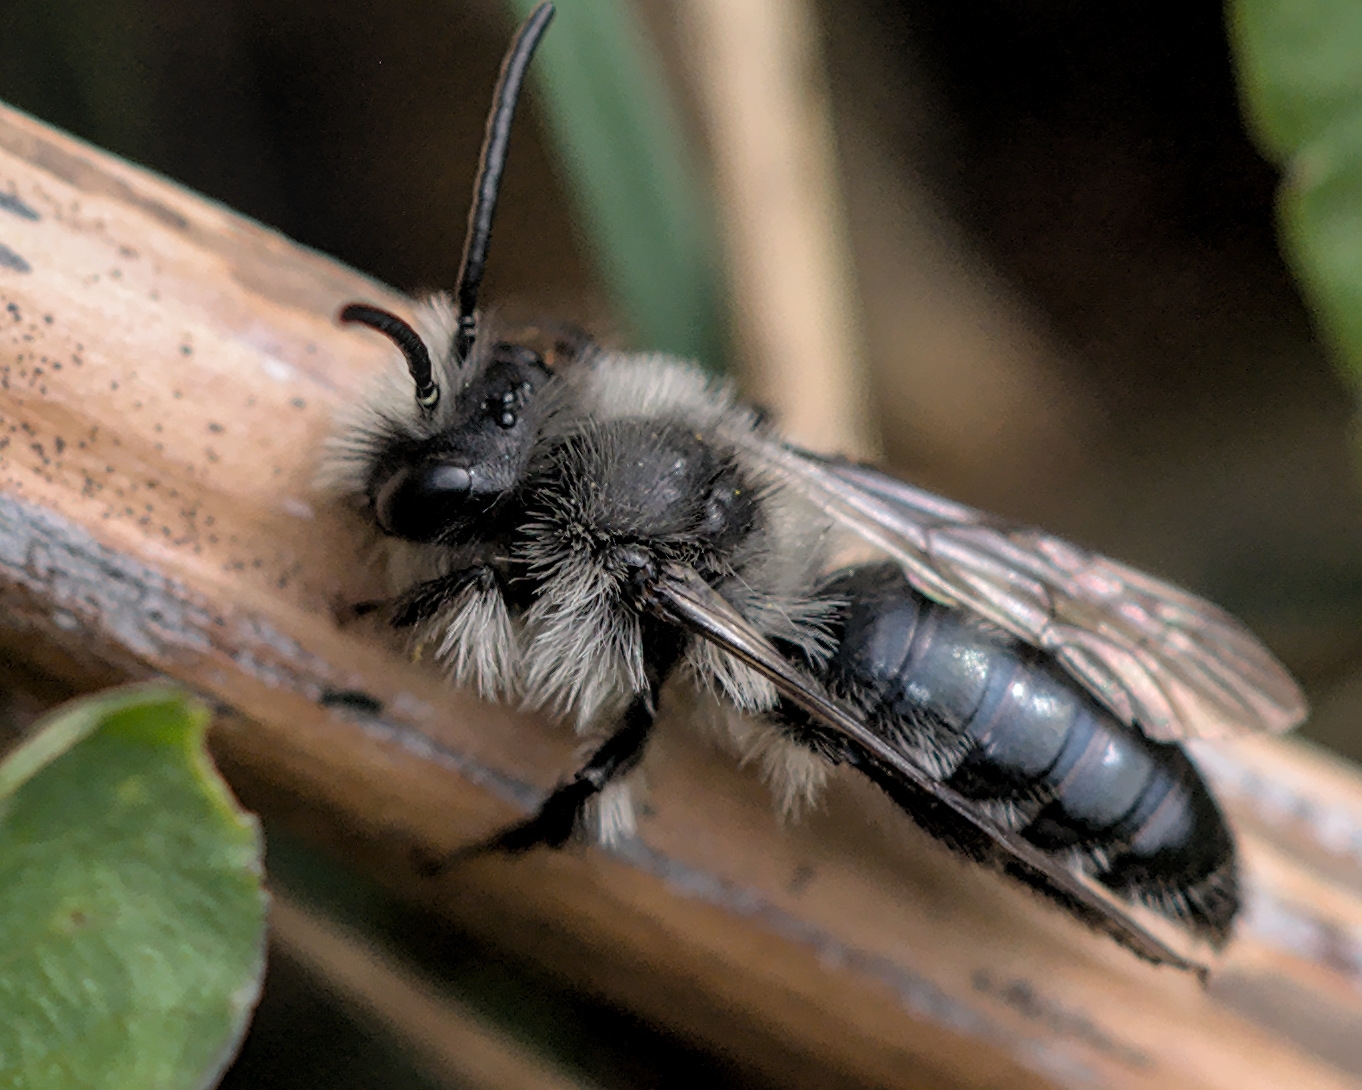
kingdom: Animalia
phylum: Arthropoda
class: Insecta
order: Hymenoptera
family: Andrenidae
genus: Andrena
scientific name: Andrena cineraria
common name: Ashy mining bee
